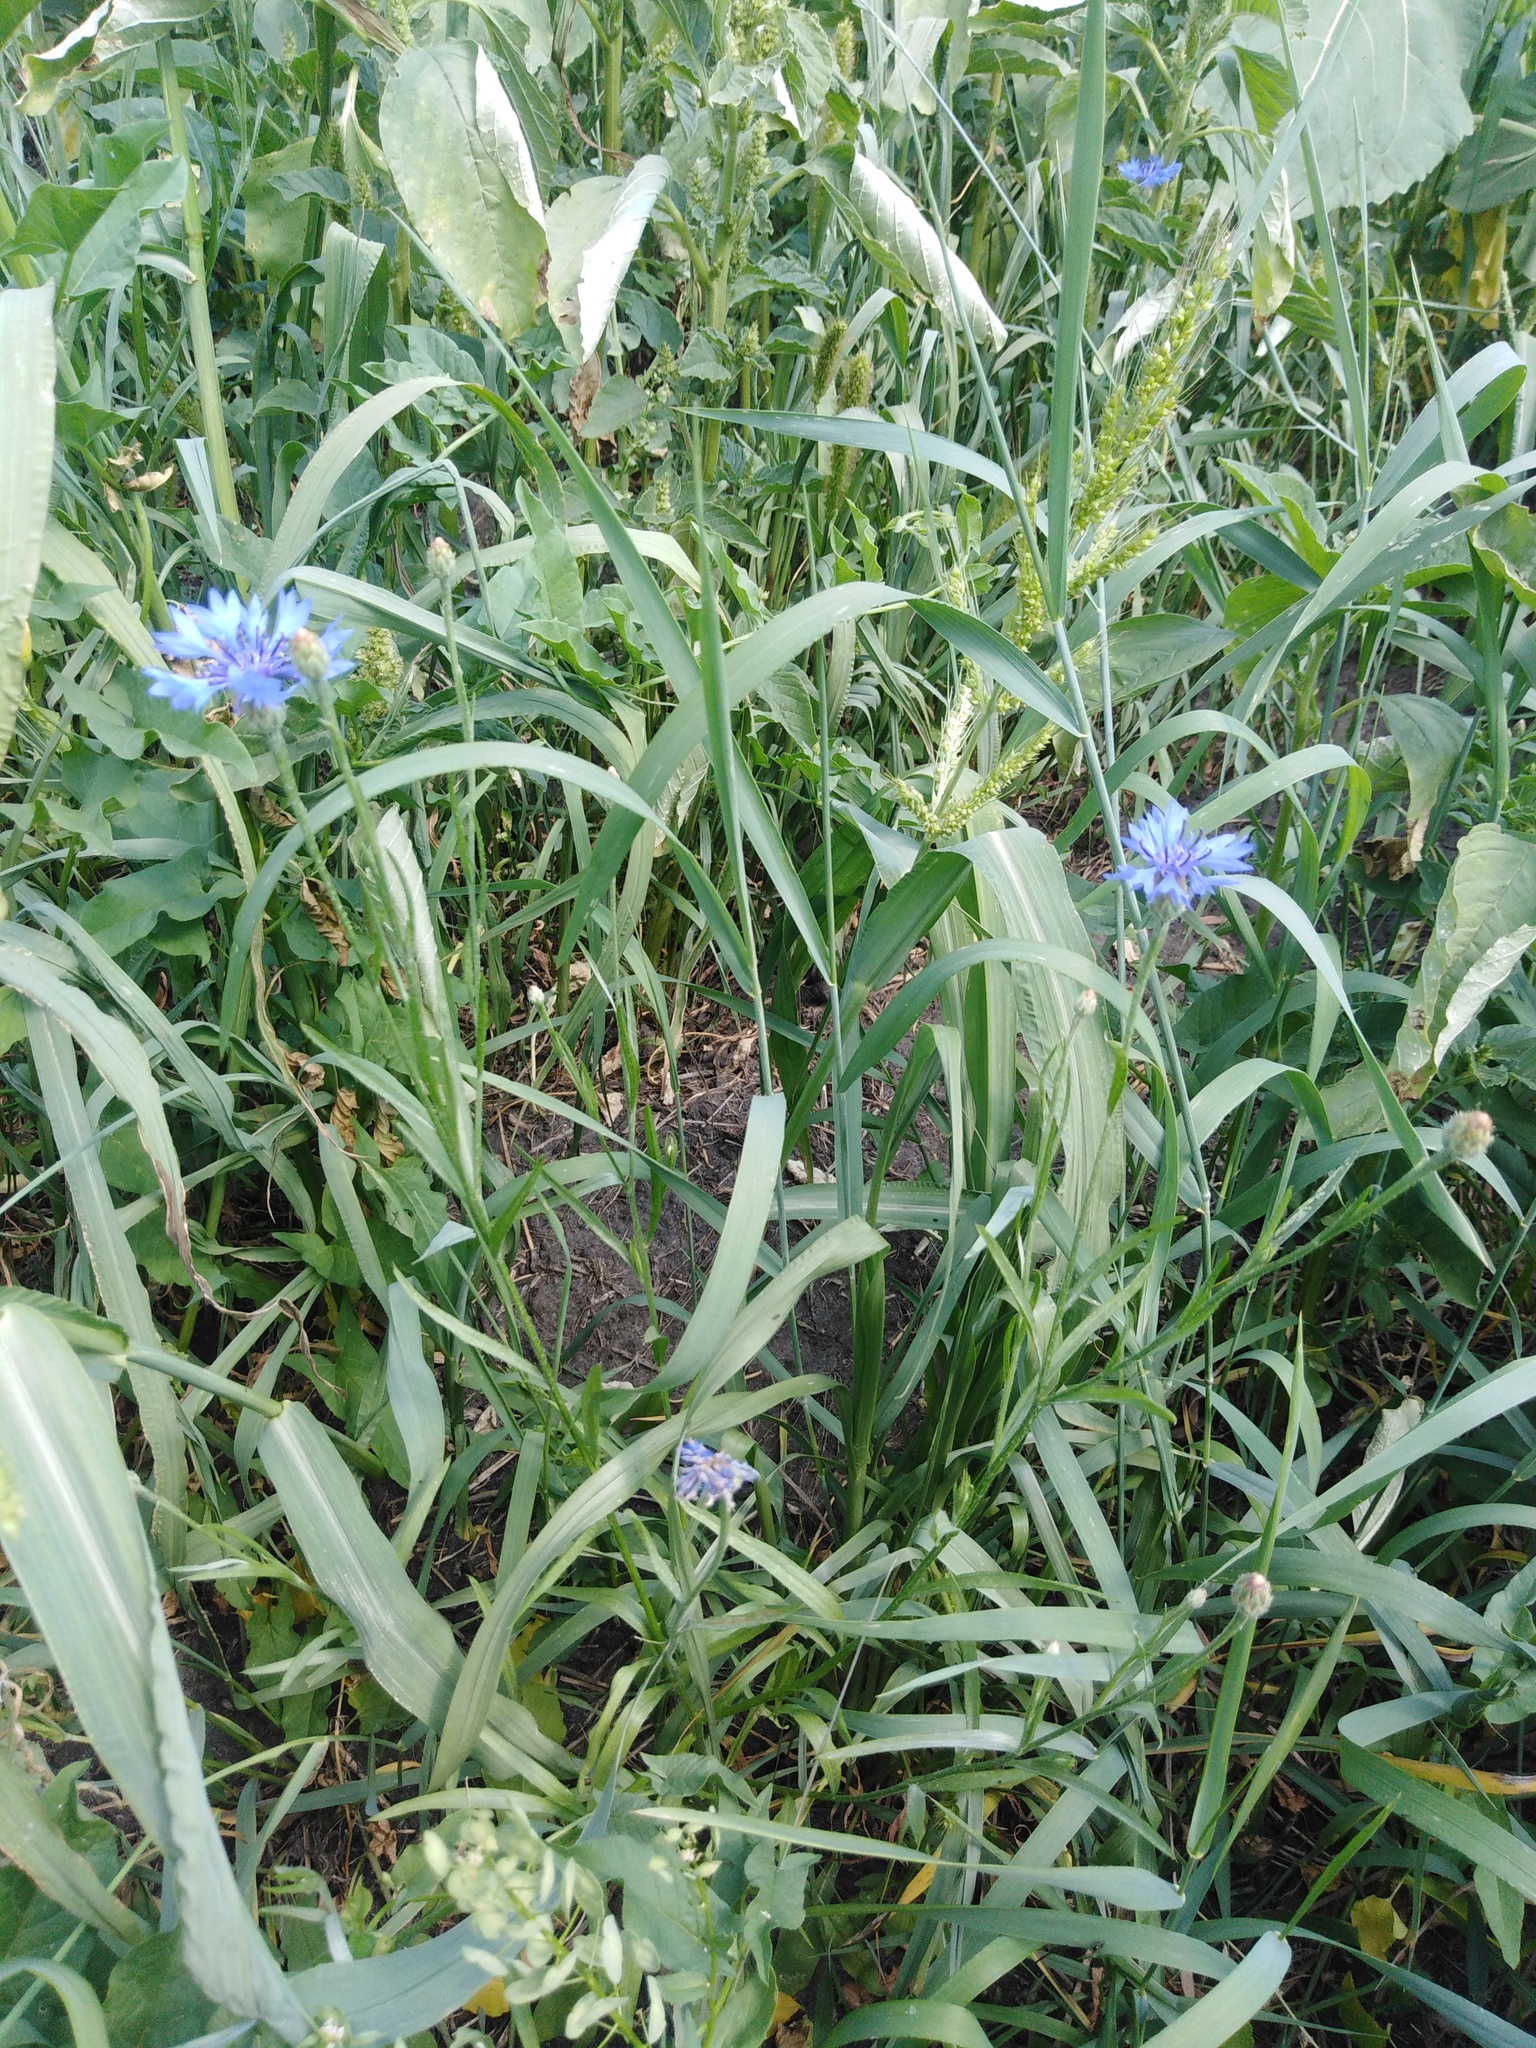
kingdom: Plantae
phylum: Tracheophyta
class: Magnoliopsida
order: Asterales
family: Asteraceae
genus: Centaurea
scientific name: Centaurea cyanus
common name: Cornflower
